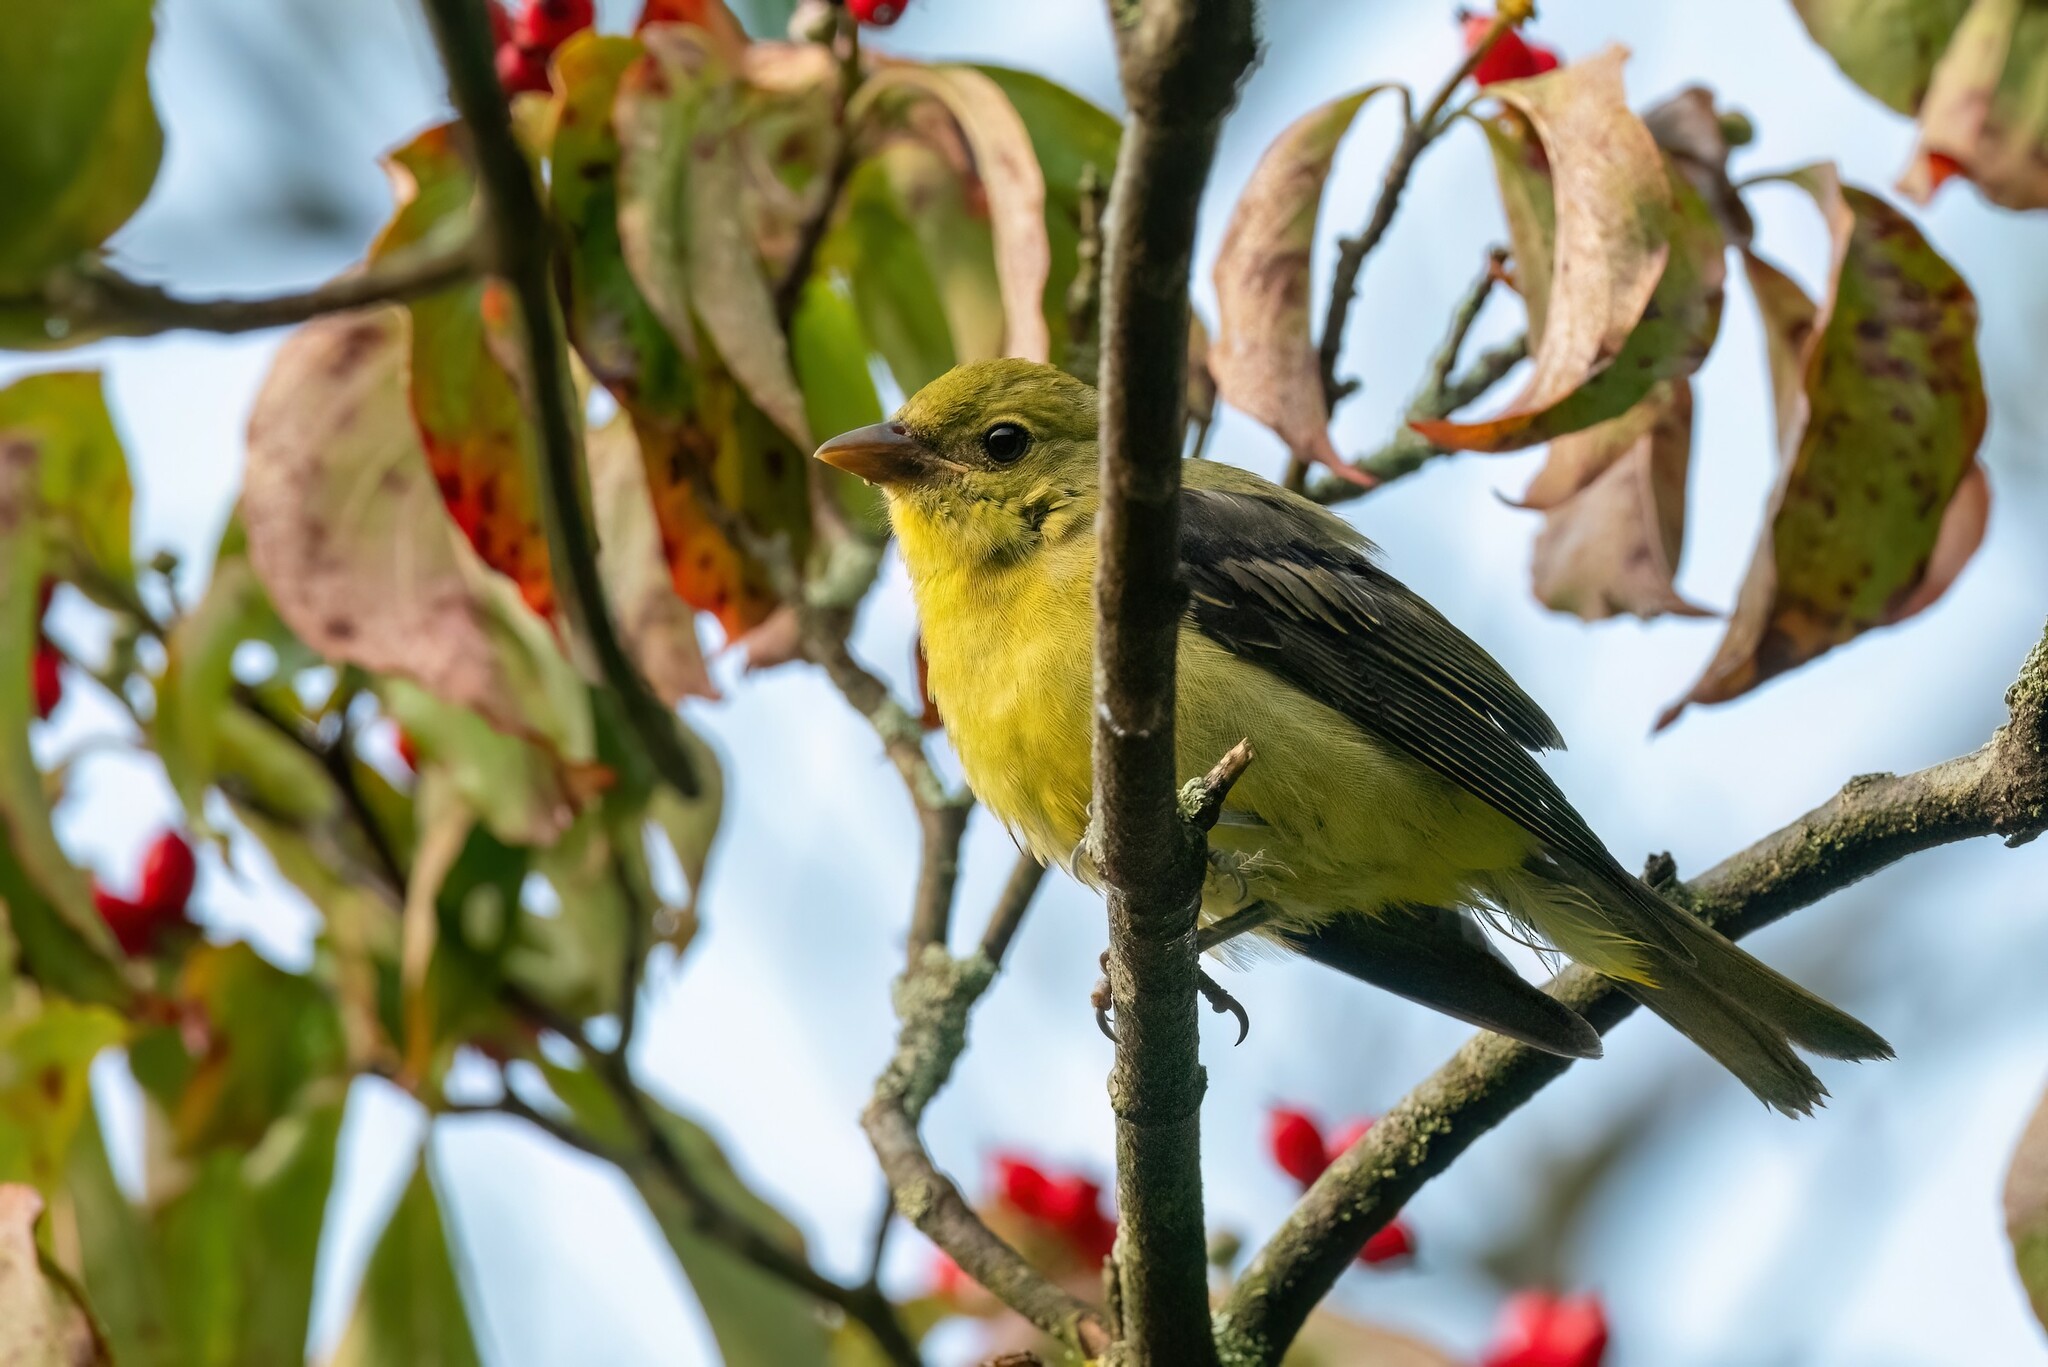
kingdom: Animalia
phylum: Chordata
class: Aves
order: Passeriformes
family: Cardinalidae
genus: Piranga
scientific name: Piranga olivacea
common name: Scarlet tanager
